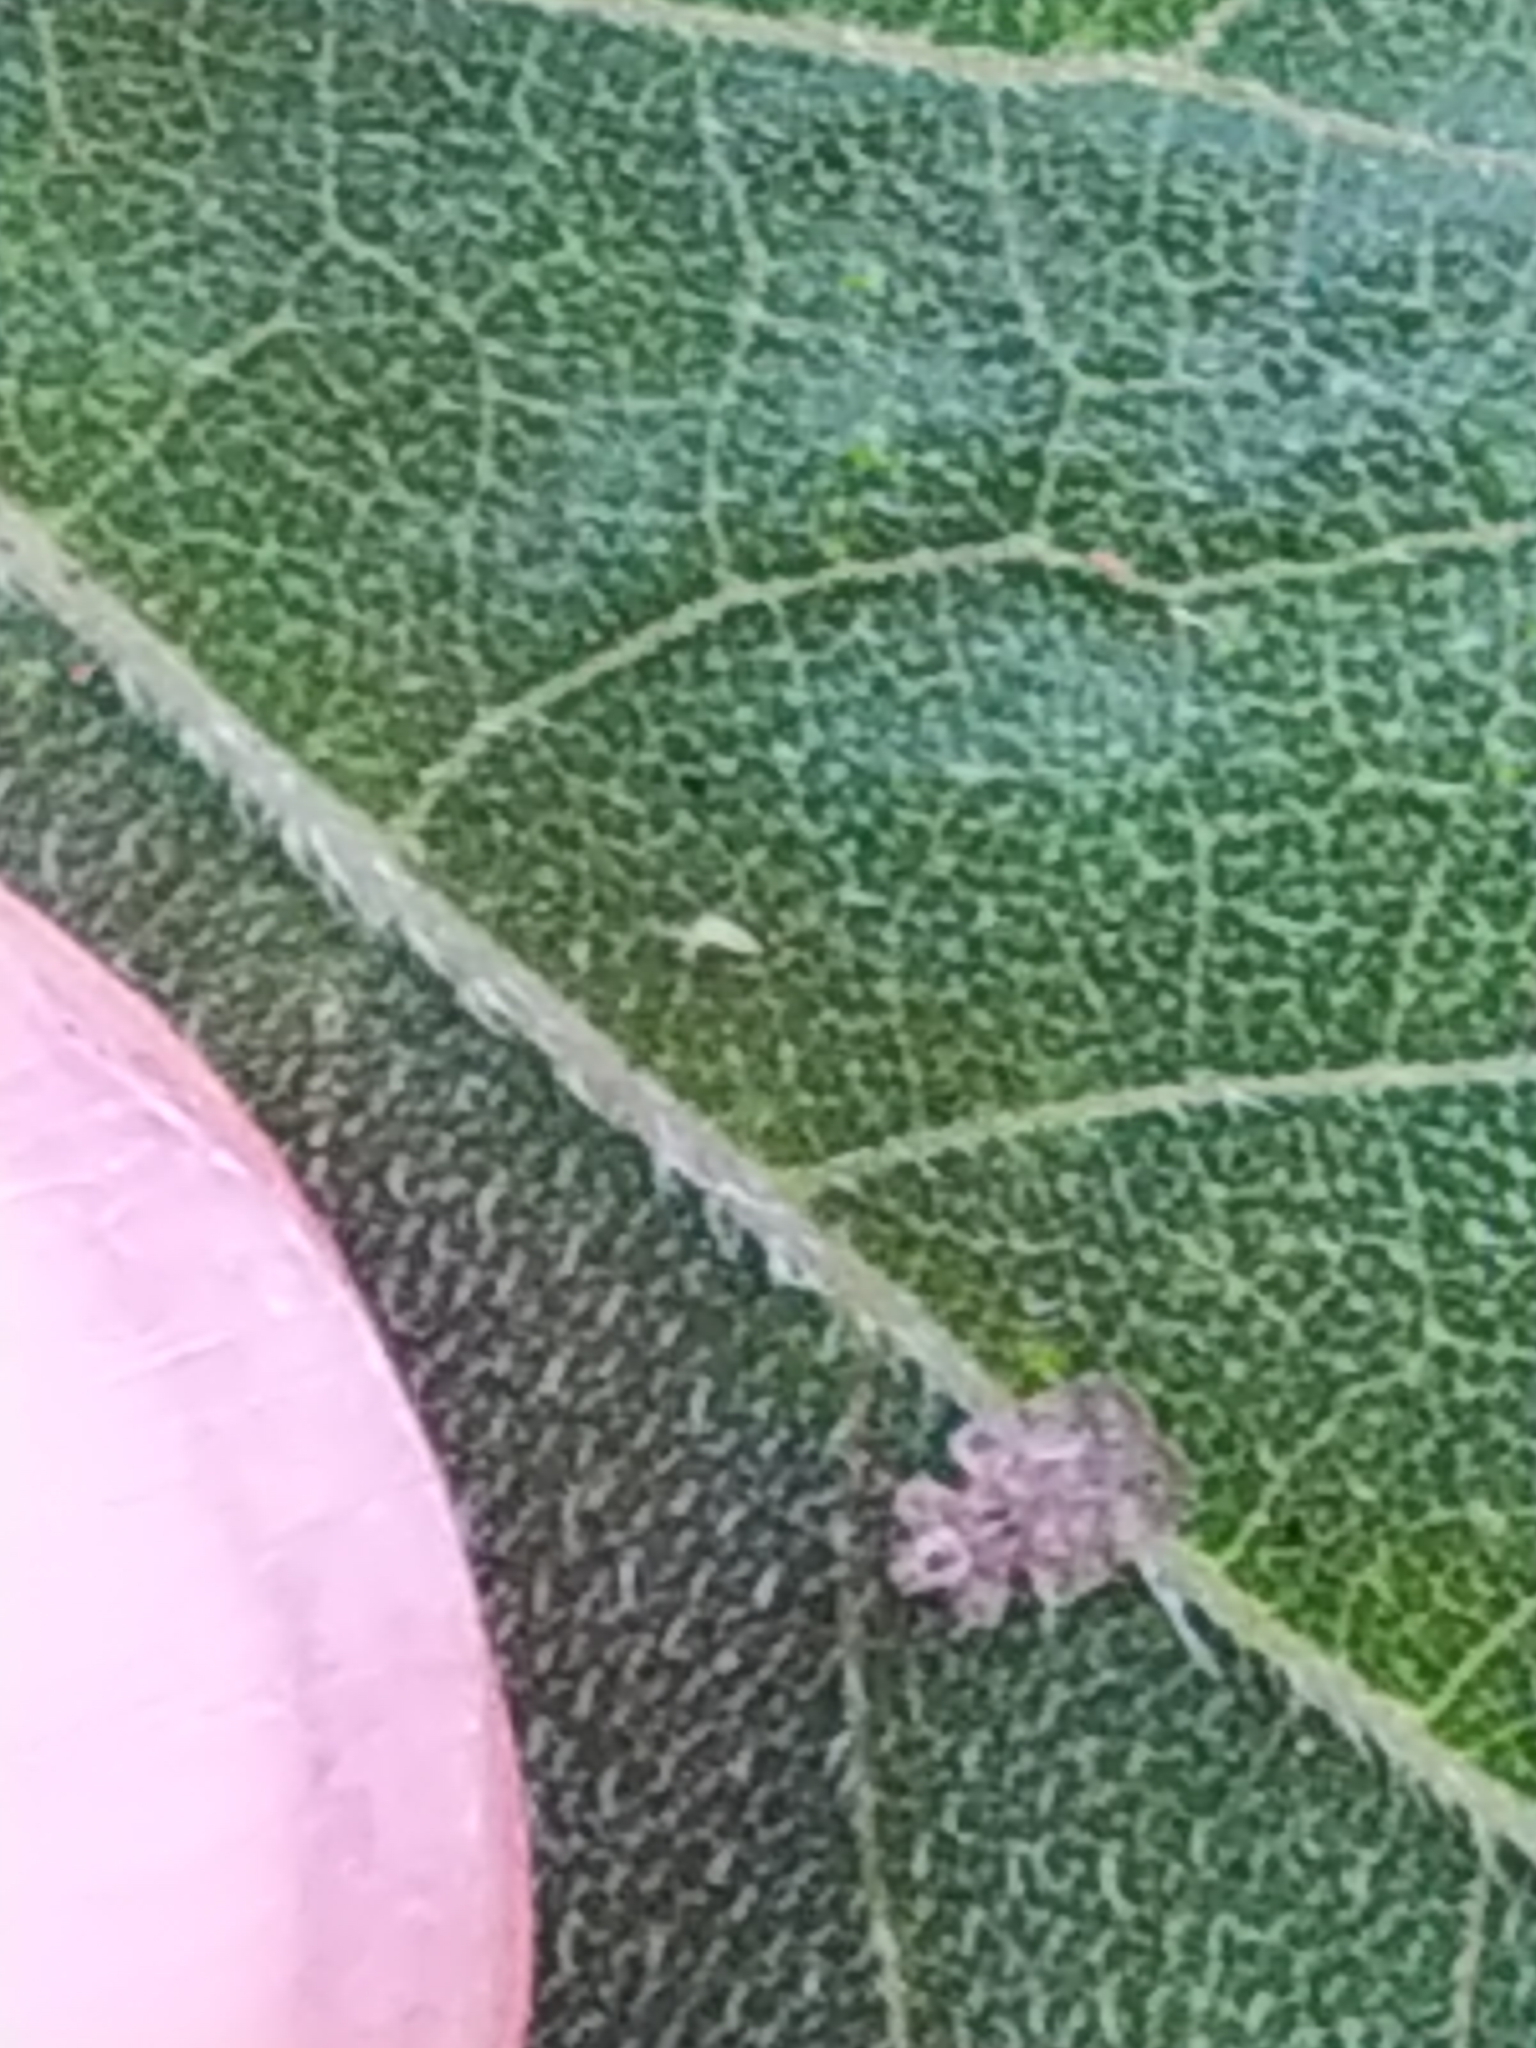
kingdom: Animalia
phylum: Arthropoda
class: Insecta
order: Hemiptera
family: Tingidae
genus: Corythucha
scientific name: Corythucha marmorata
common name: Chrysanthemum lace bug
